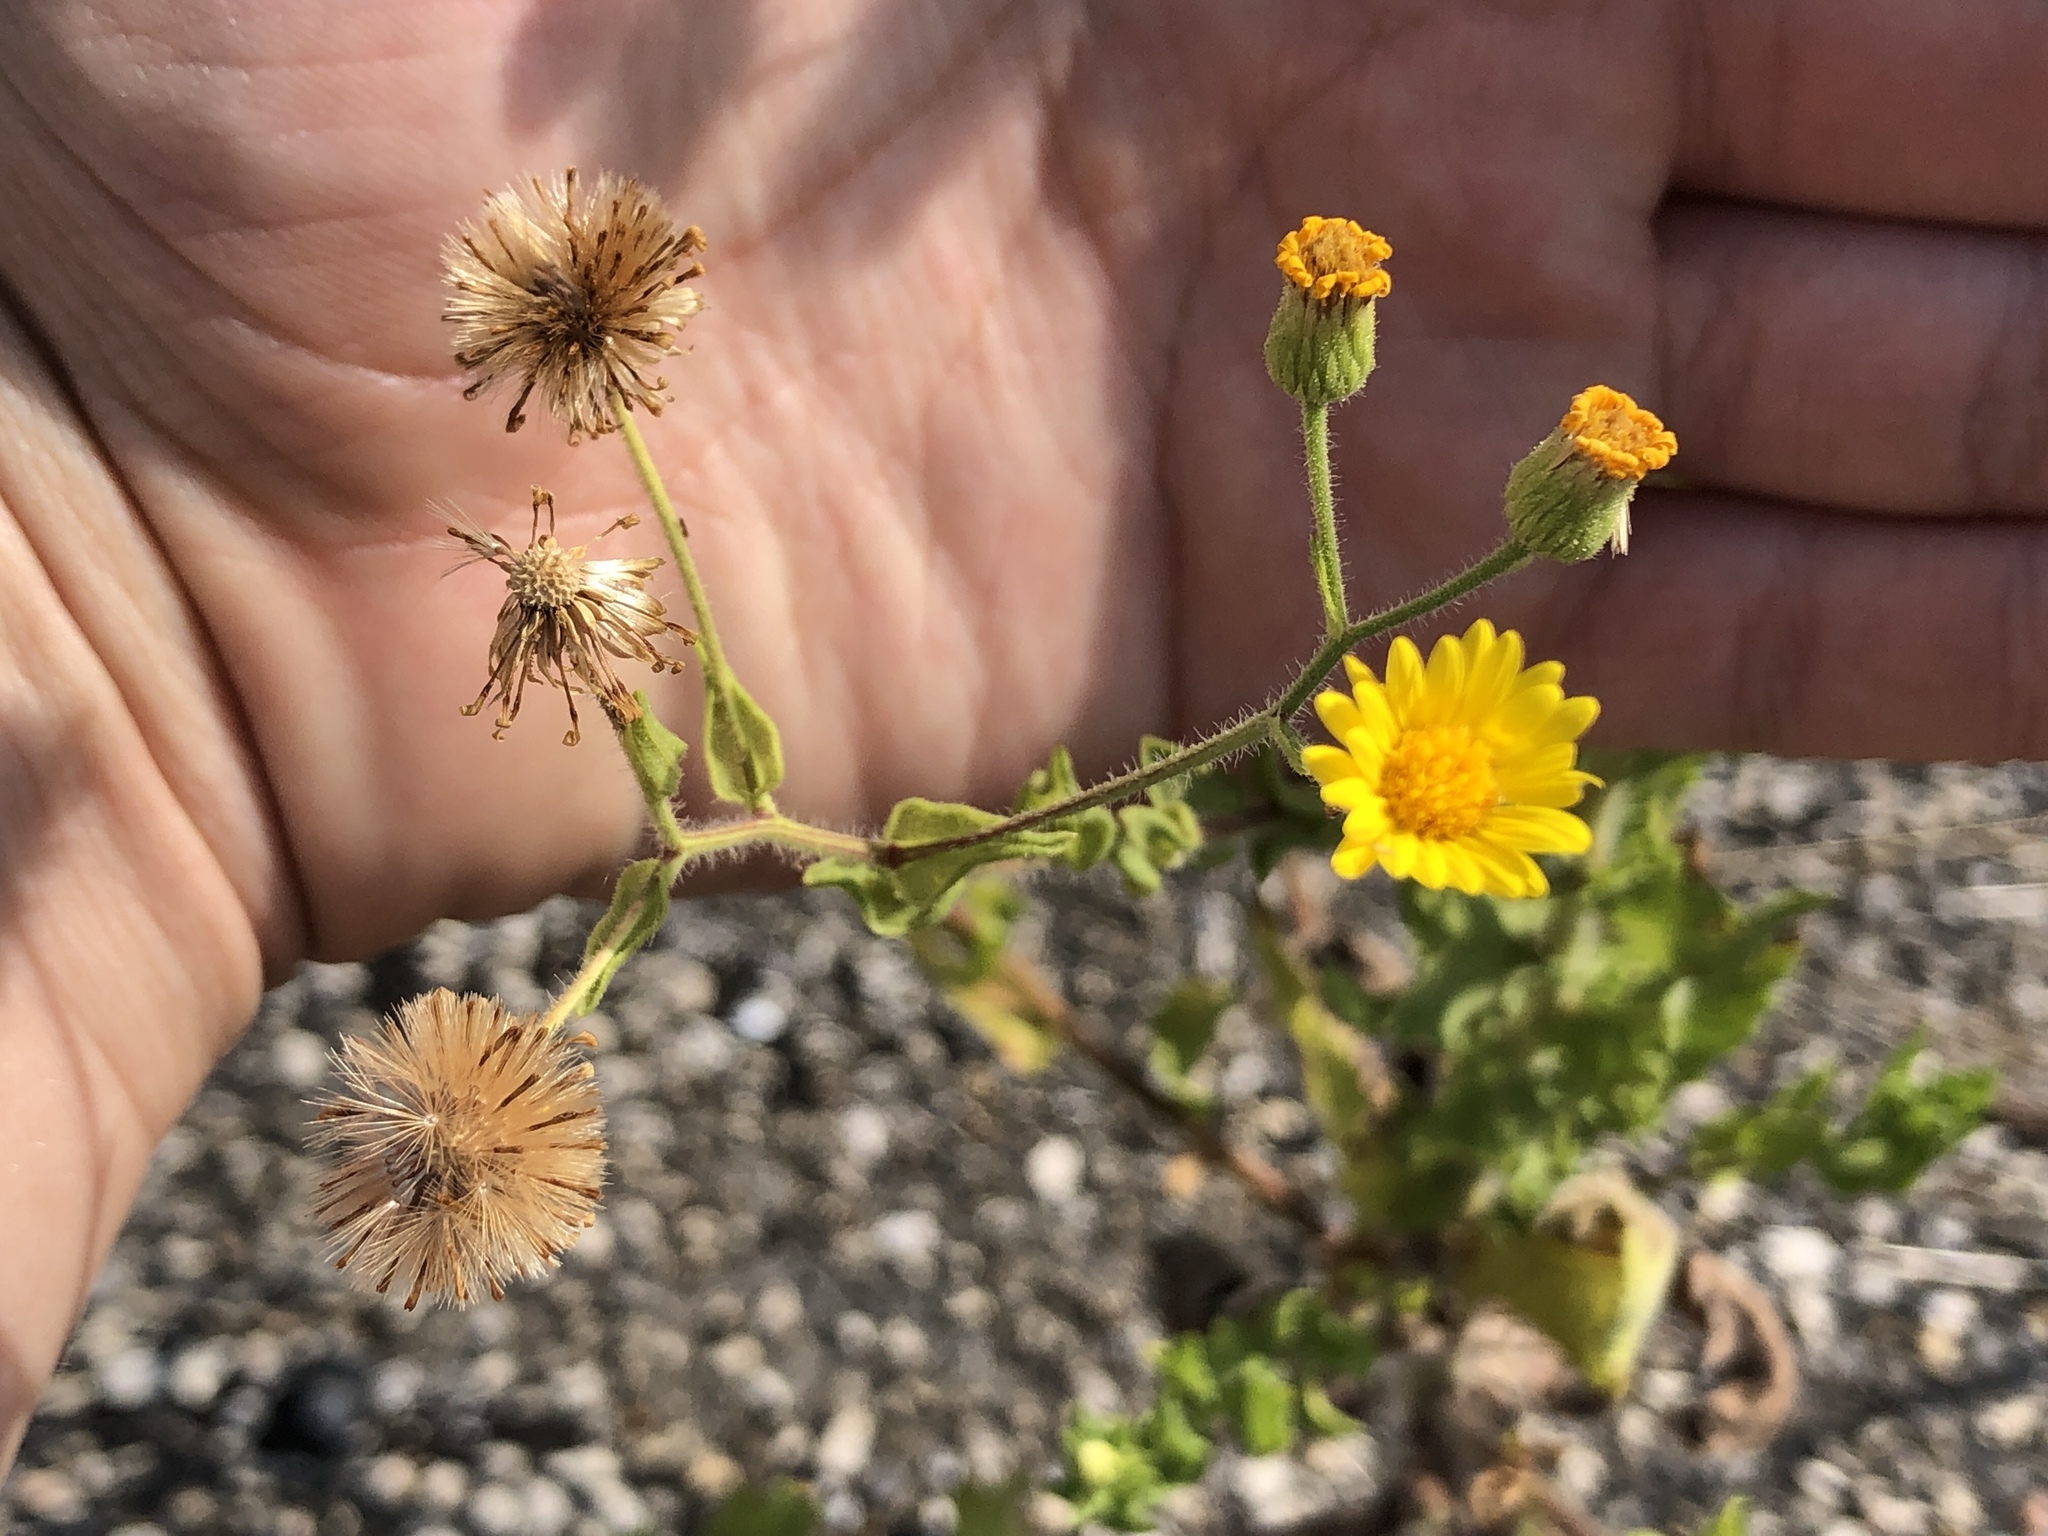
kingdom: Plantae
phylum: Tracheophyta
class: Magnoliopsida
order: Asterales
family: Asteraceae
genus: Heterotheca
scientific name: Heterotheca subaxillaris
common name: Camphorweed
